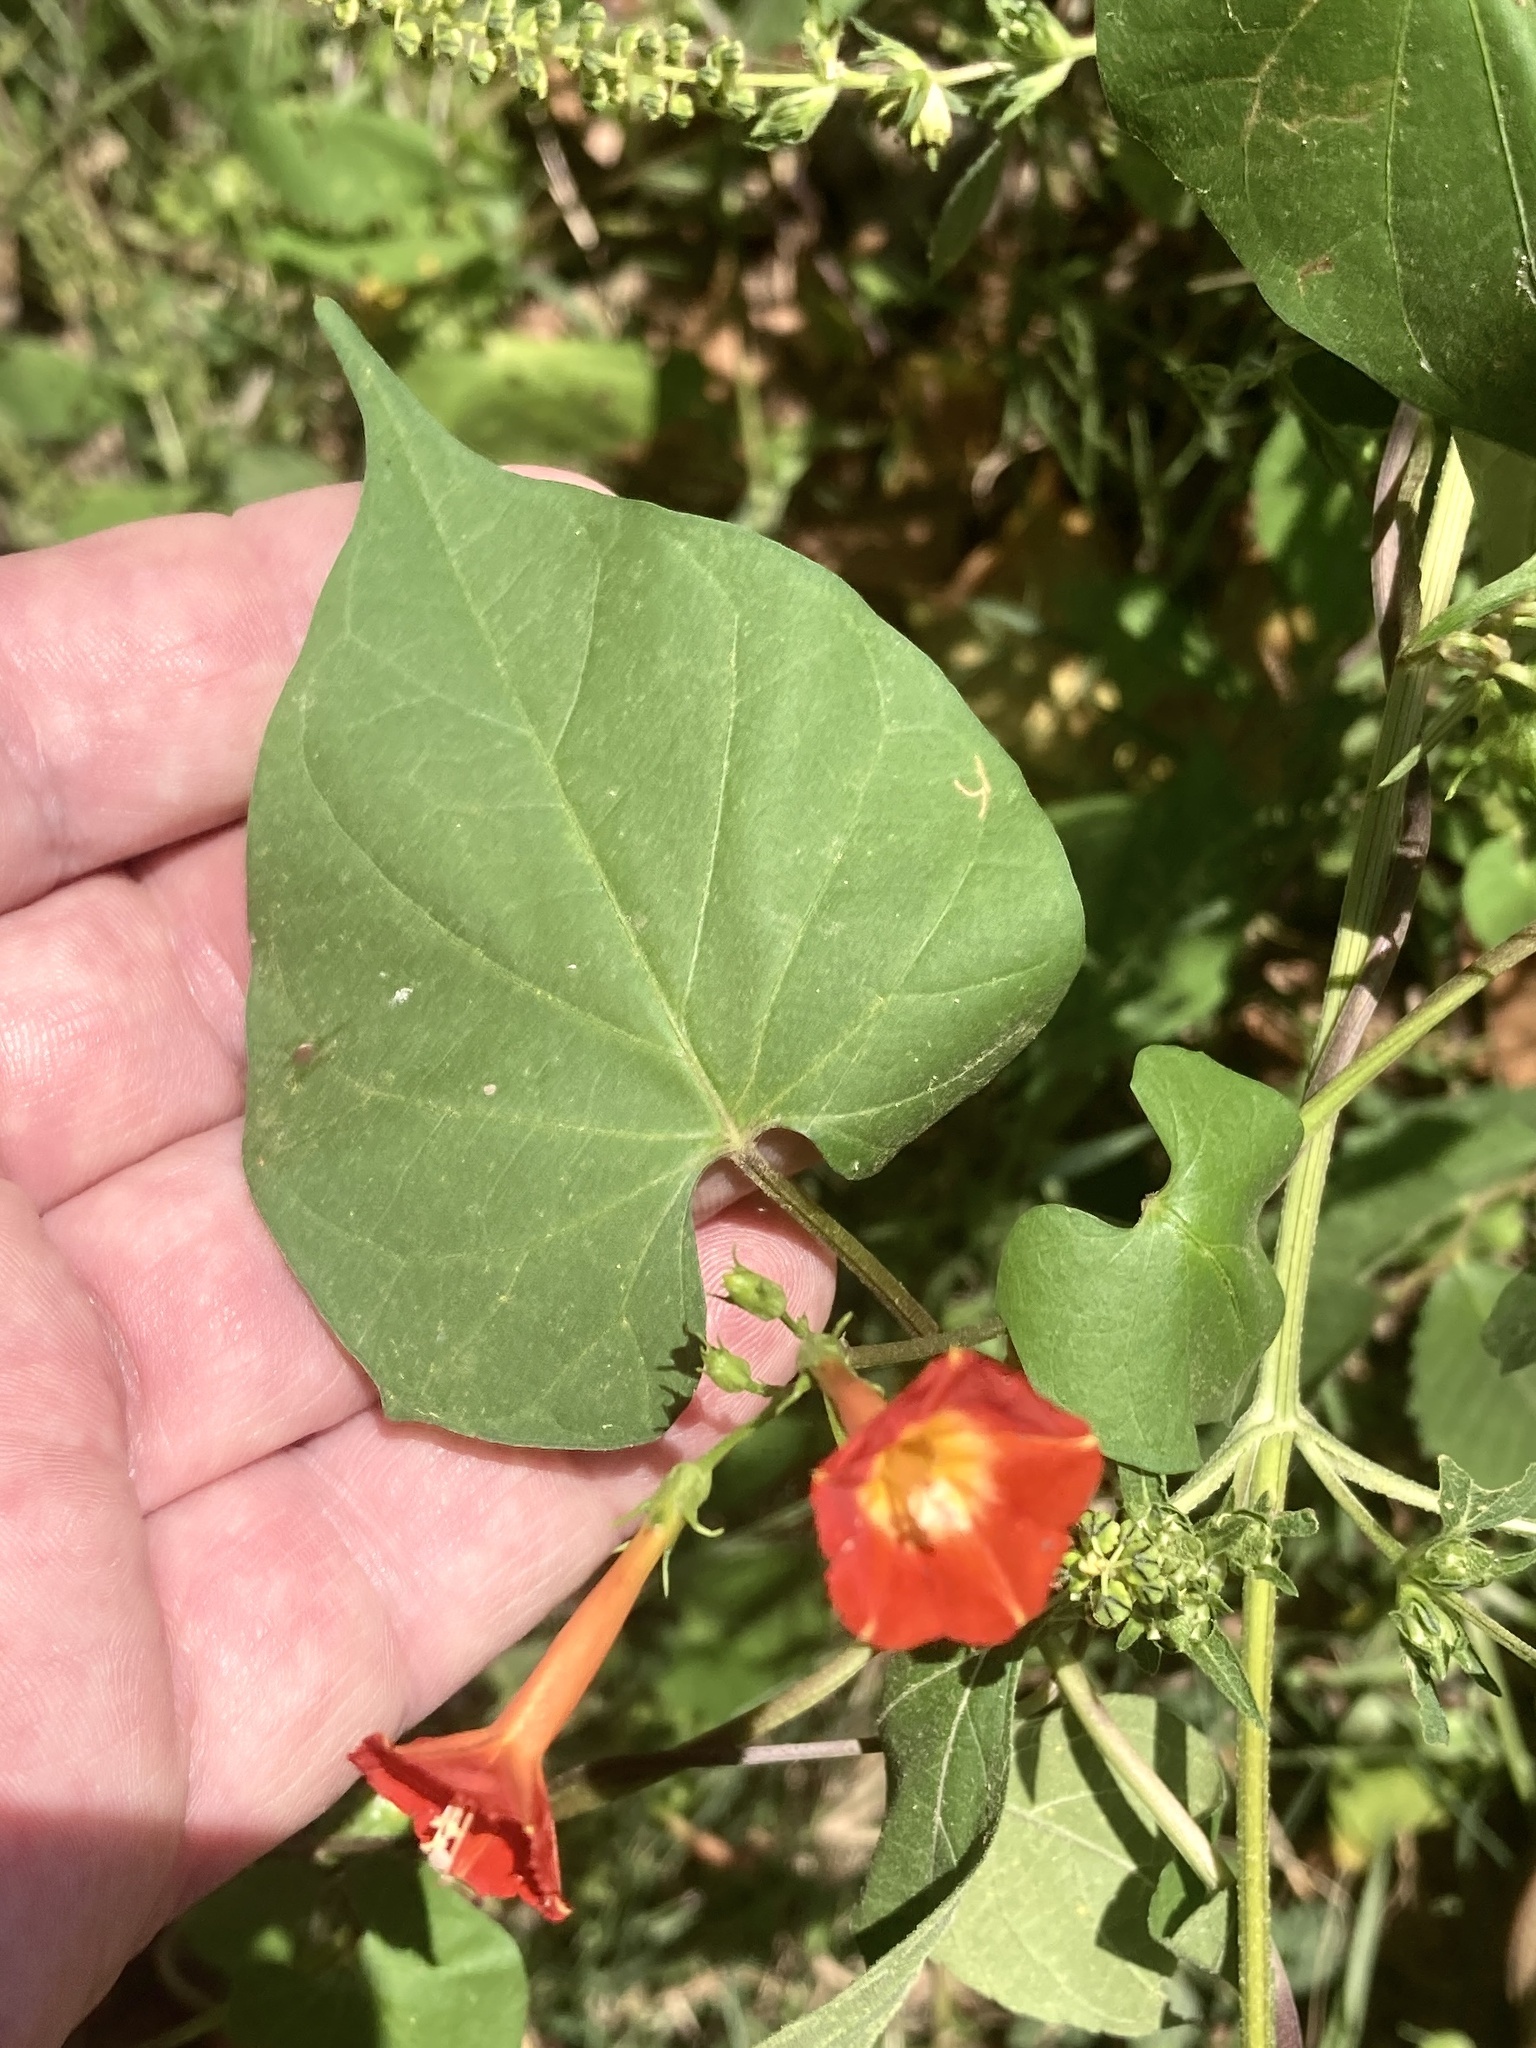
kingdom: Plantae
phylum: Tracheophyta
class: Magnoliopsida
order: Solanales
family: Convolvulaceae
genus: Ipomoea
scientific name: Ipomoea coccinea
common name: Red morning-glory
